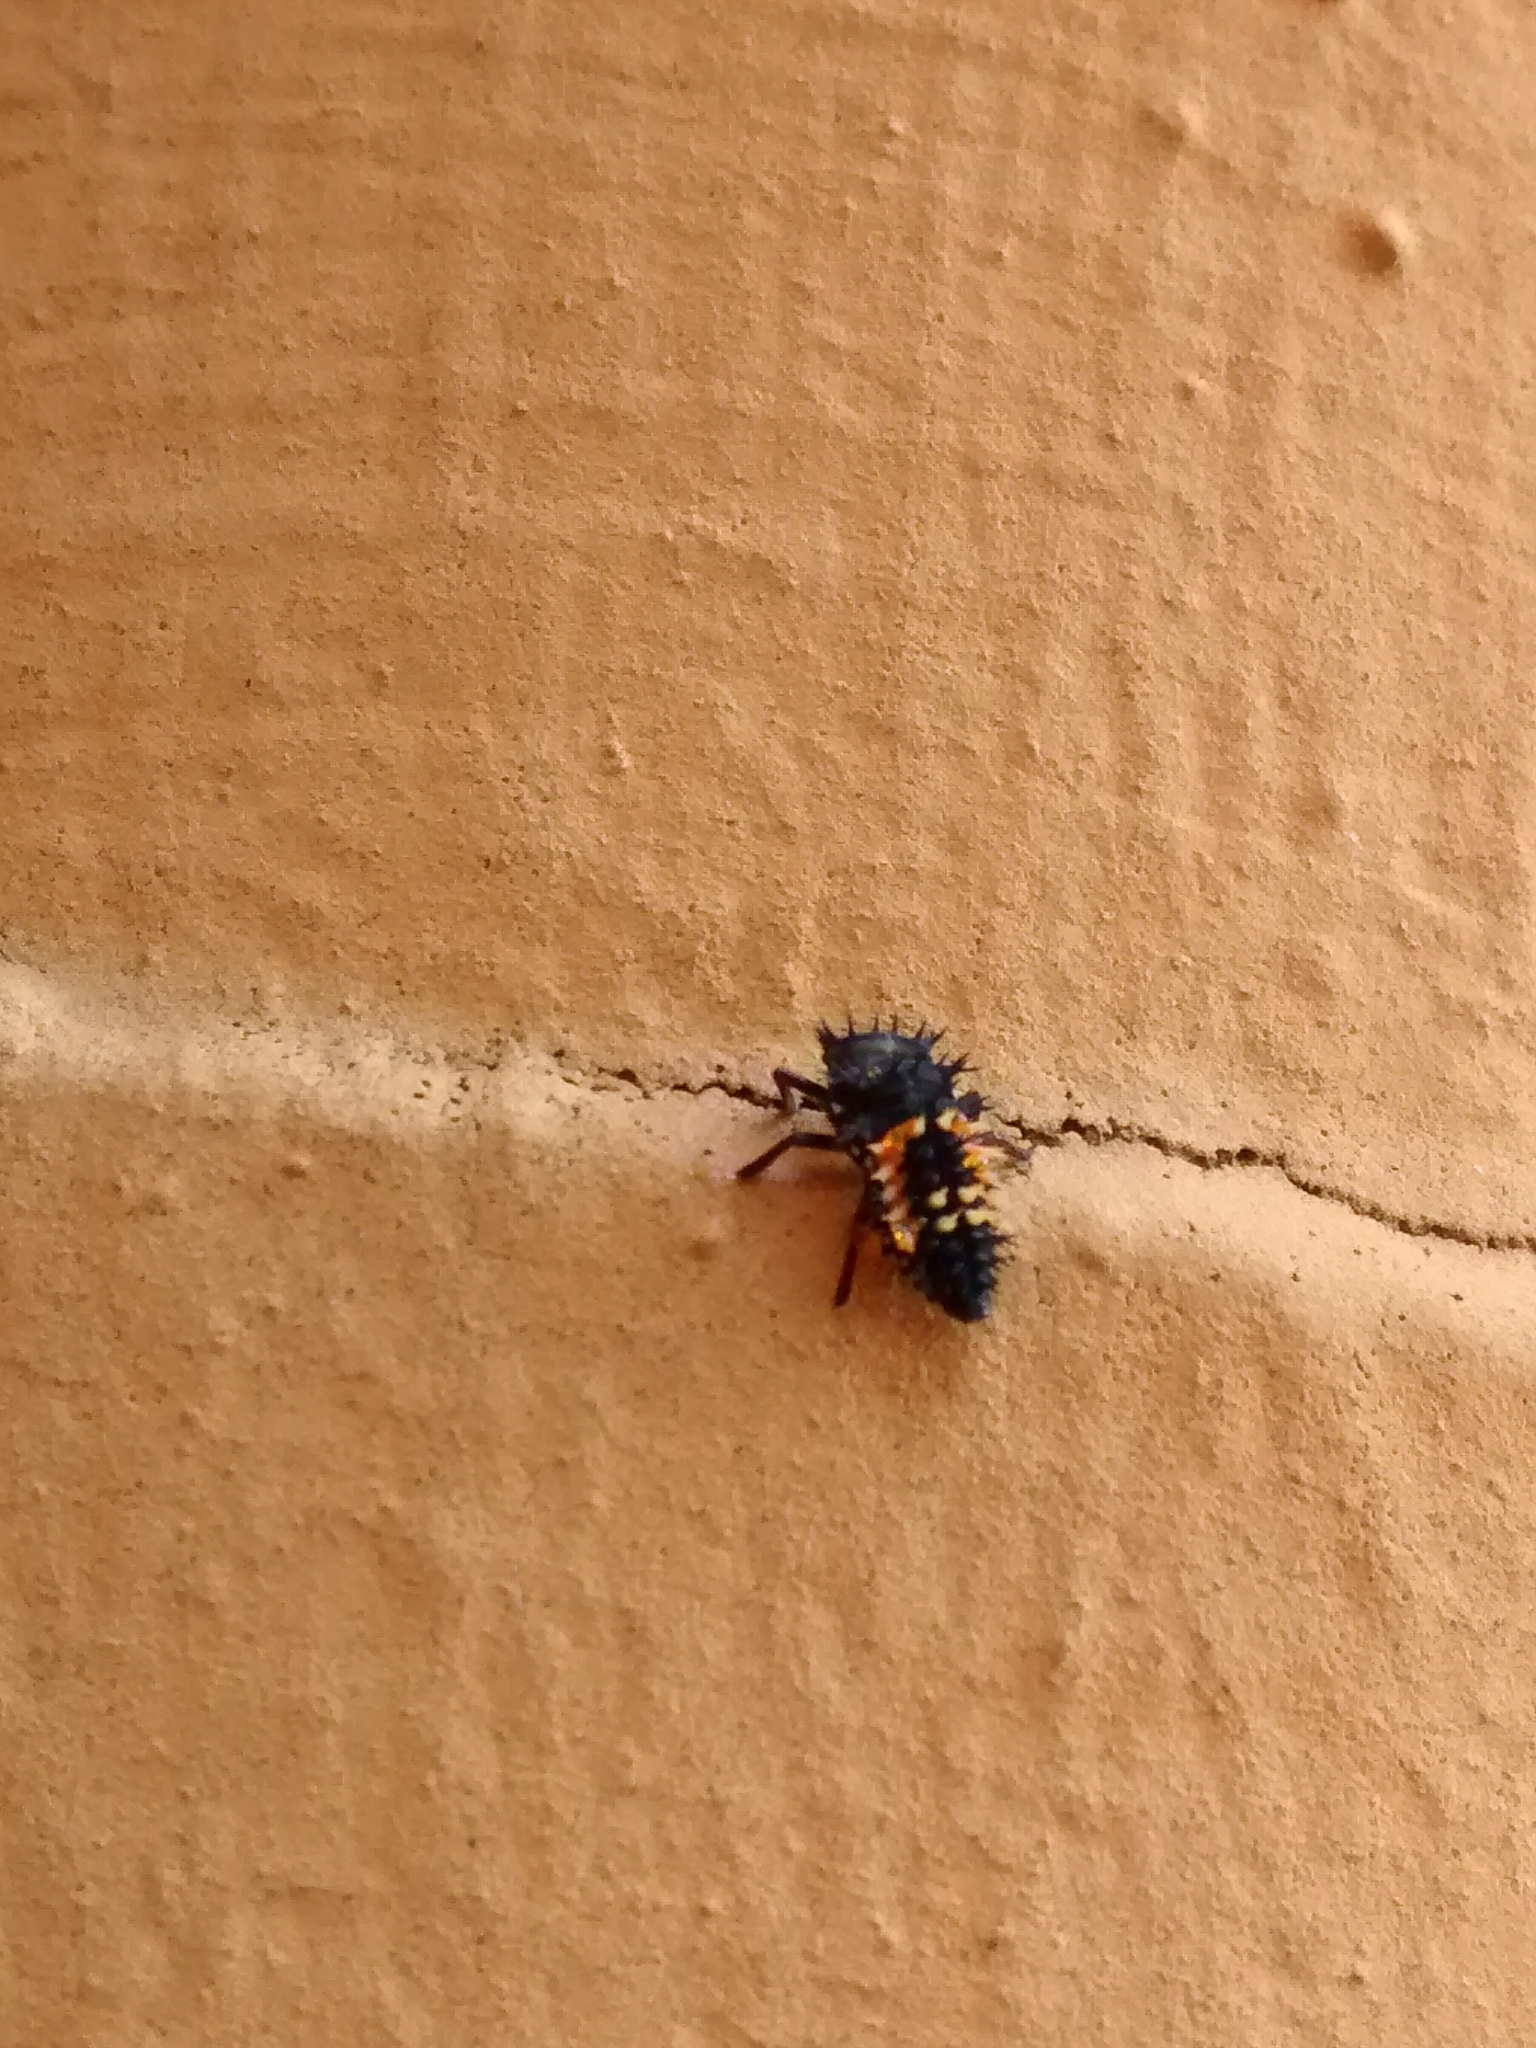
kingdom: Animalia
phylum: Arthropoda
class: Insecta
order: Coleoptera
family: Coccinellidae
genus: Harmonia
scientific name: Harmonia axyridis
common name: Harlequin ladybird
